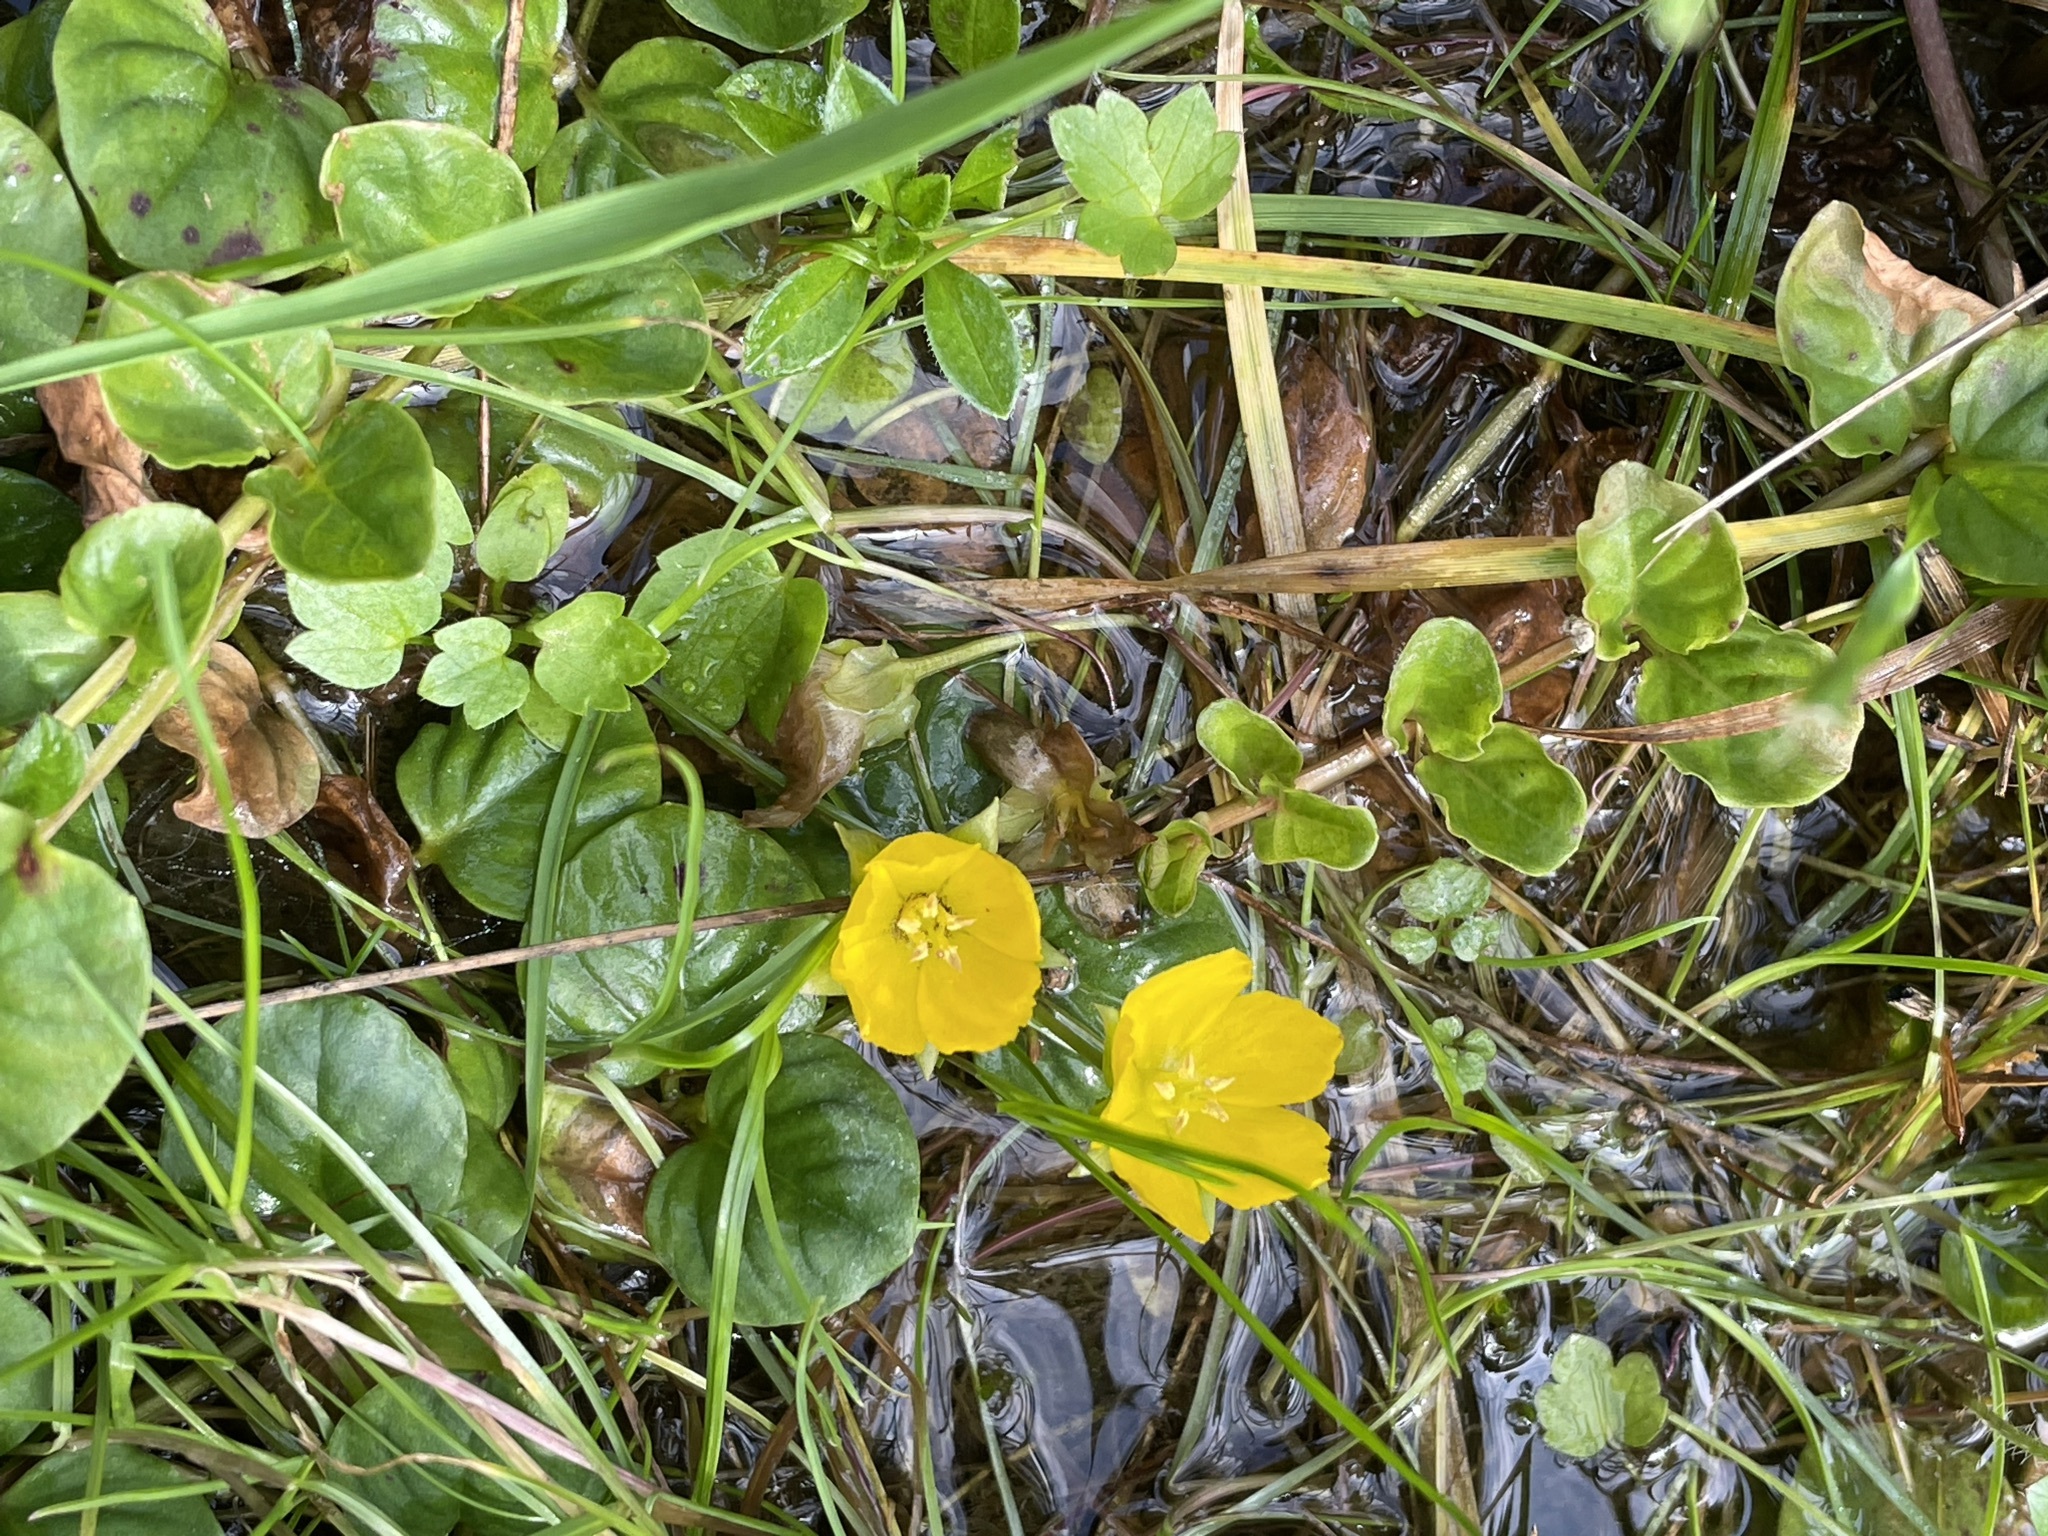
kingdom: Plantae
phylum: Tracheophyta
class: Magnoliopsida
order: Ericales
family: Primulaceae
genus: Lysimachia
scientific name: Lysimachia nummularia
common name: Moneywort
